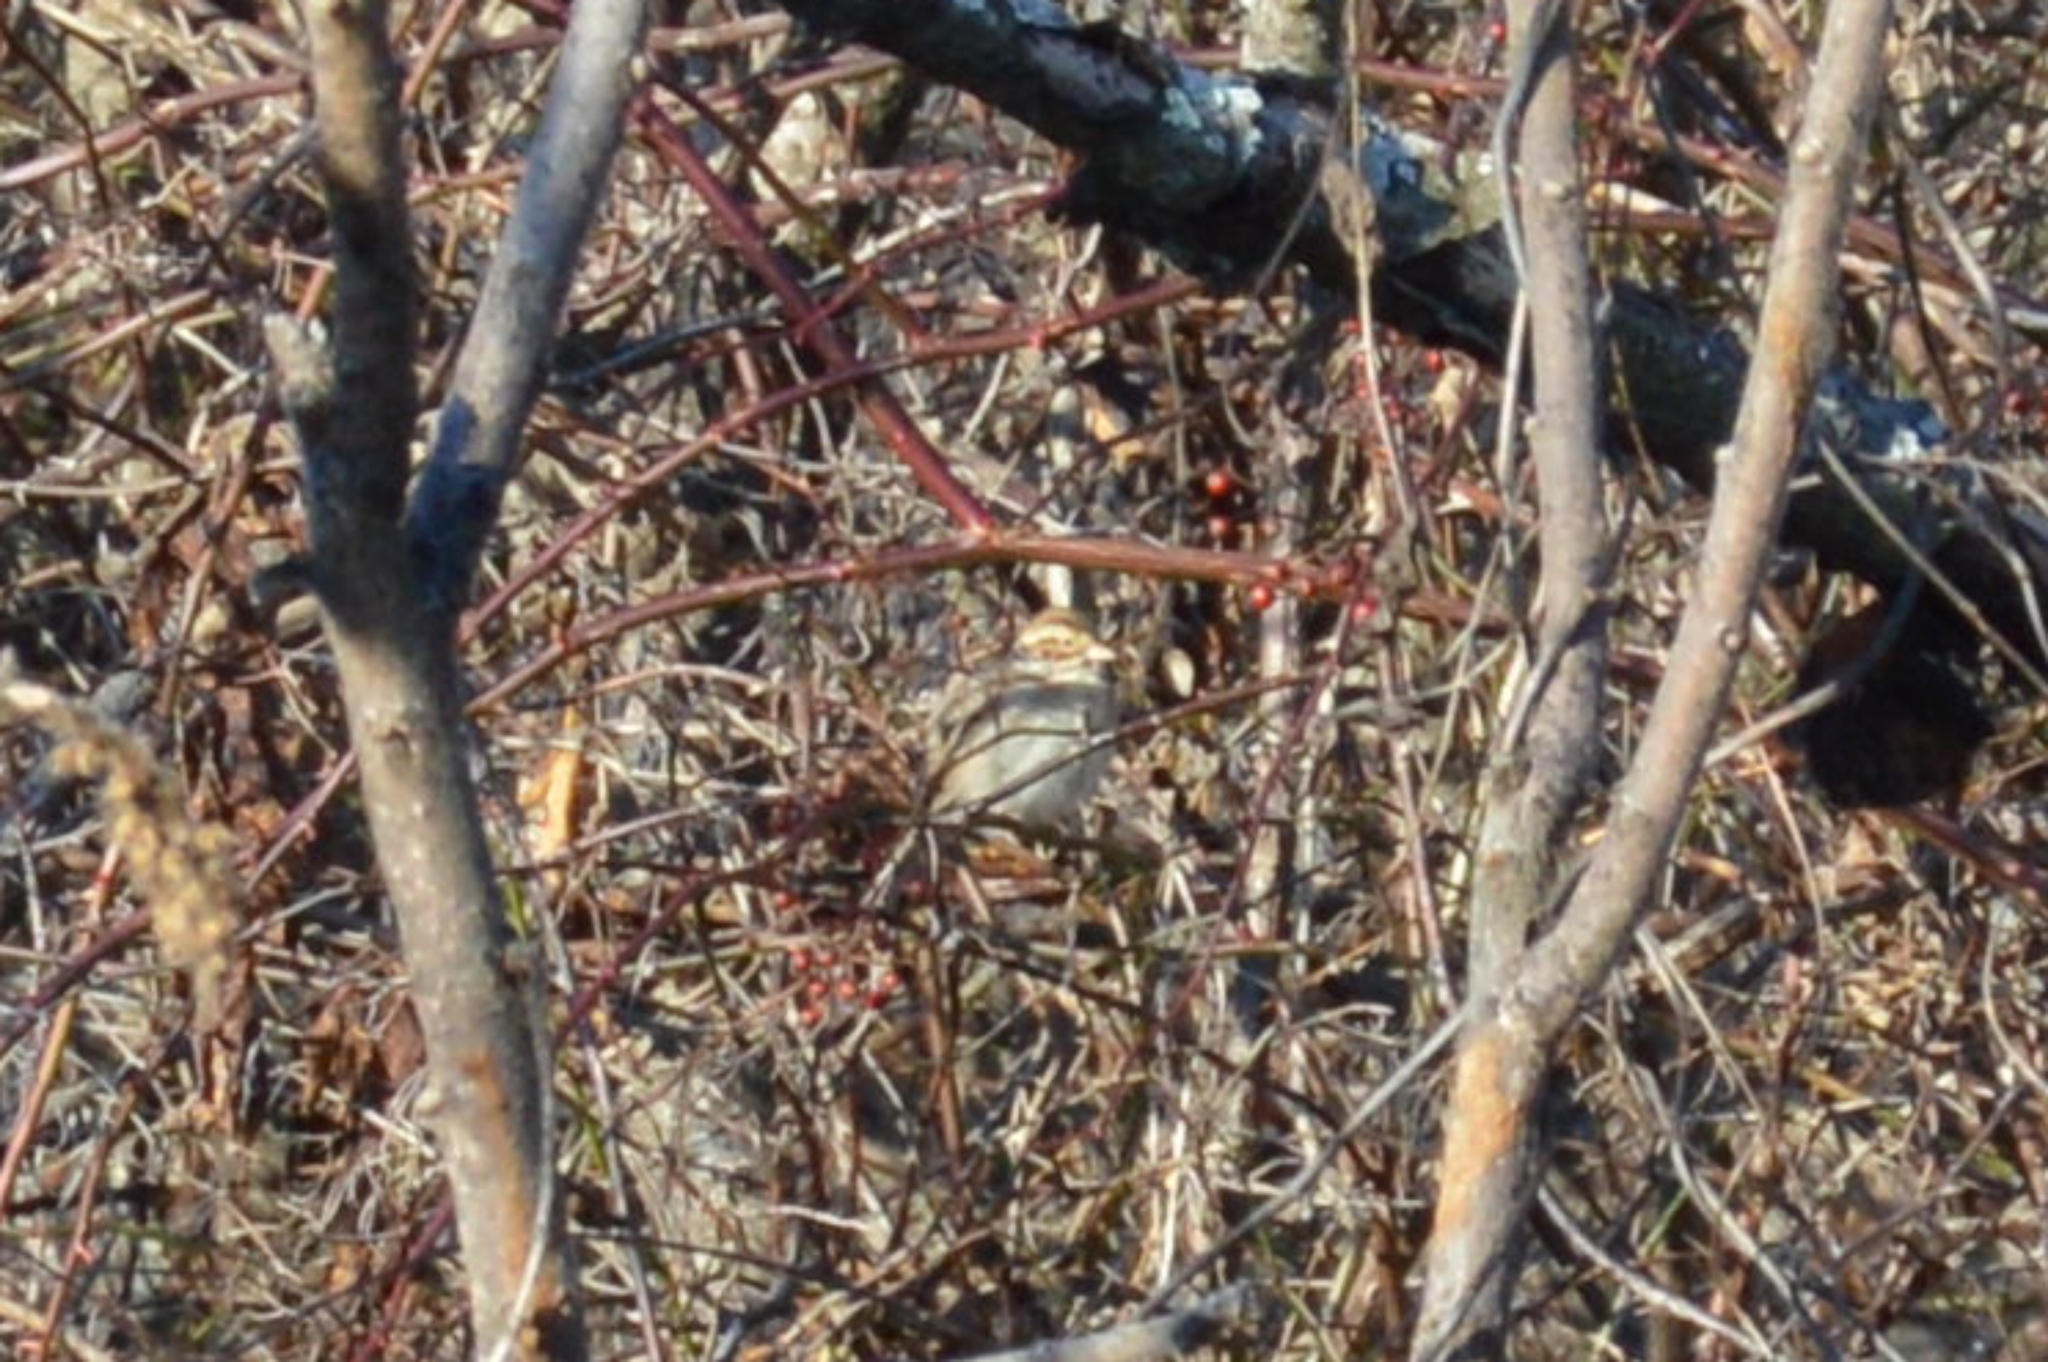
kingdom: Animalia
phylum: Chordata
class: Aves
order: Passeriformes
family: Passerellidae
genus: Spizella
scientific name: Spizella pallida
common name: Clay-colored sparrow
